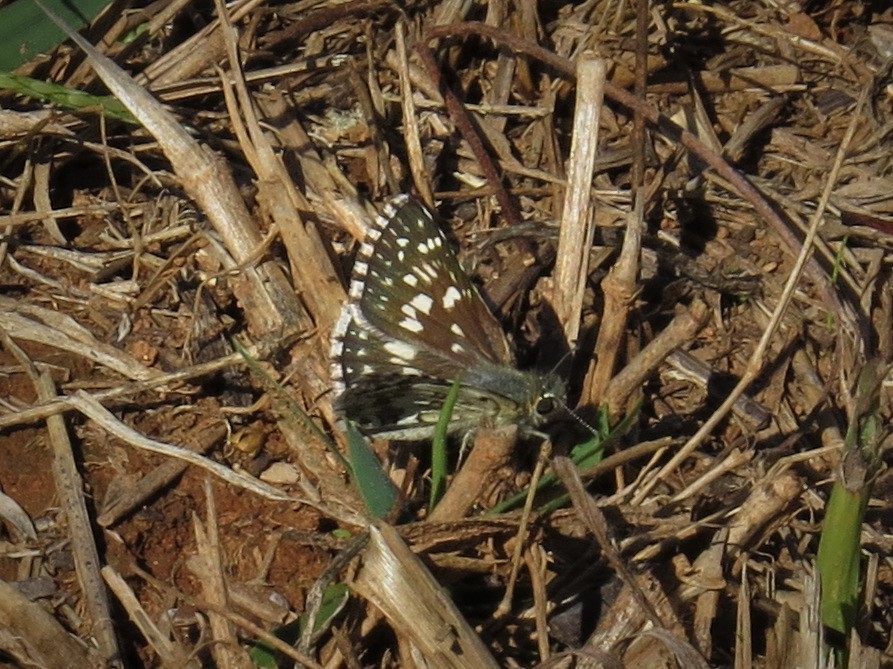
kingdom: Animalia
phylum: Arthropoda
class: Insecta
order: Lepidoptera
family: Hesperiidae
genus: Burnsius
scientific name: Burnsius communis
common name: Common checkered-skipper
